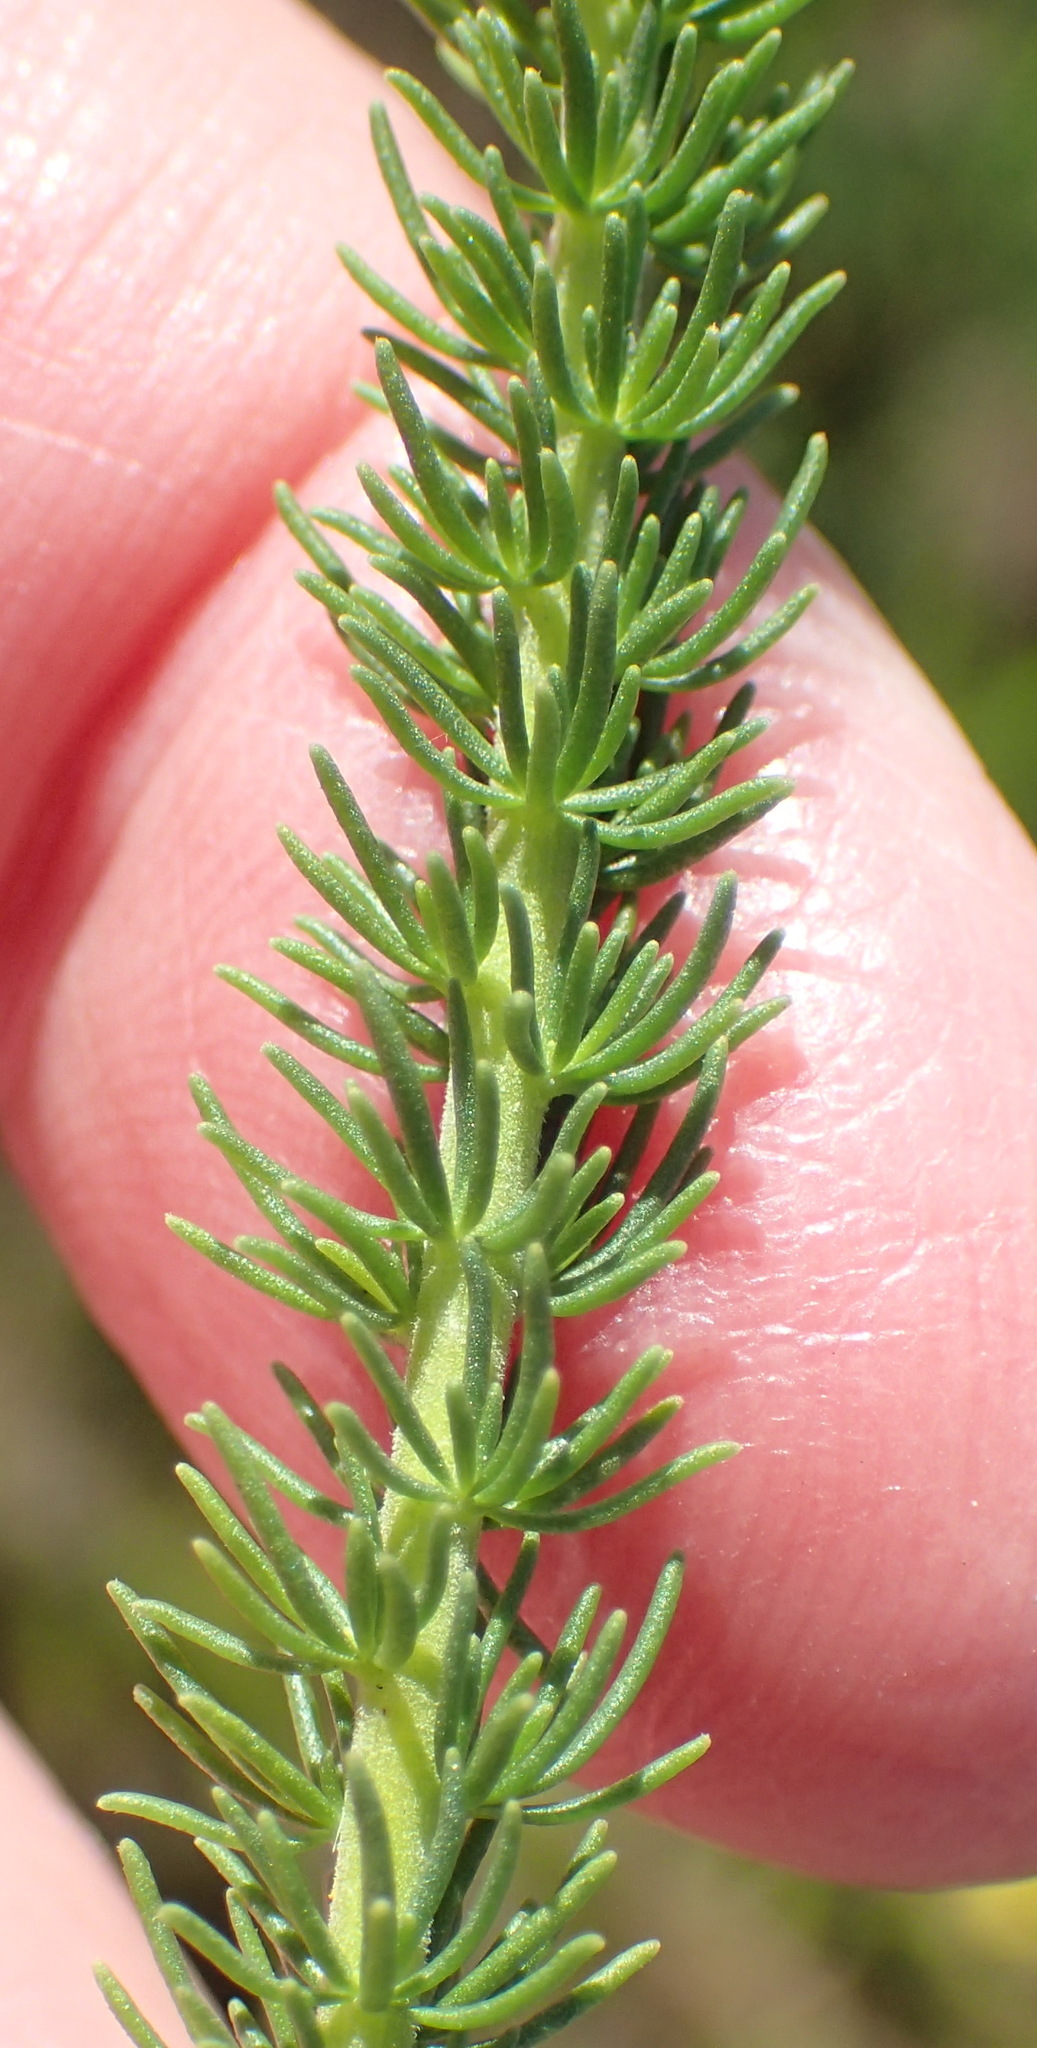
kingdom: Plantae
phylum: Tracheophyta
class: Magnoliopsida
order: Lamiales
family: Scrophulariaceae
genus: Selago
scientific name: Selago corymbosa
